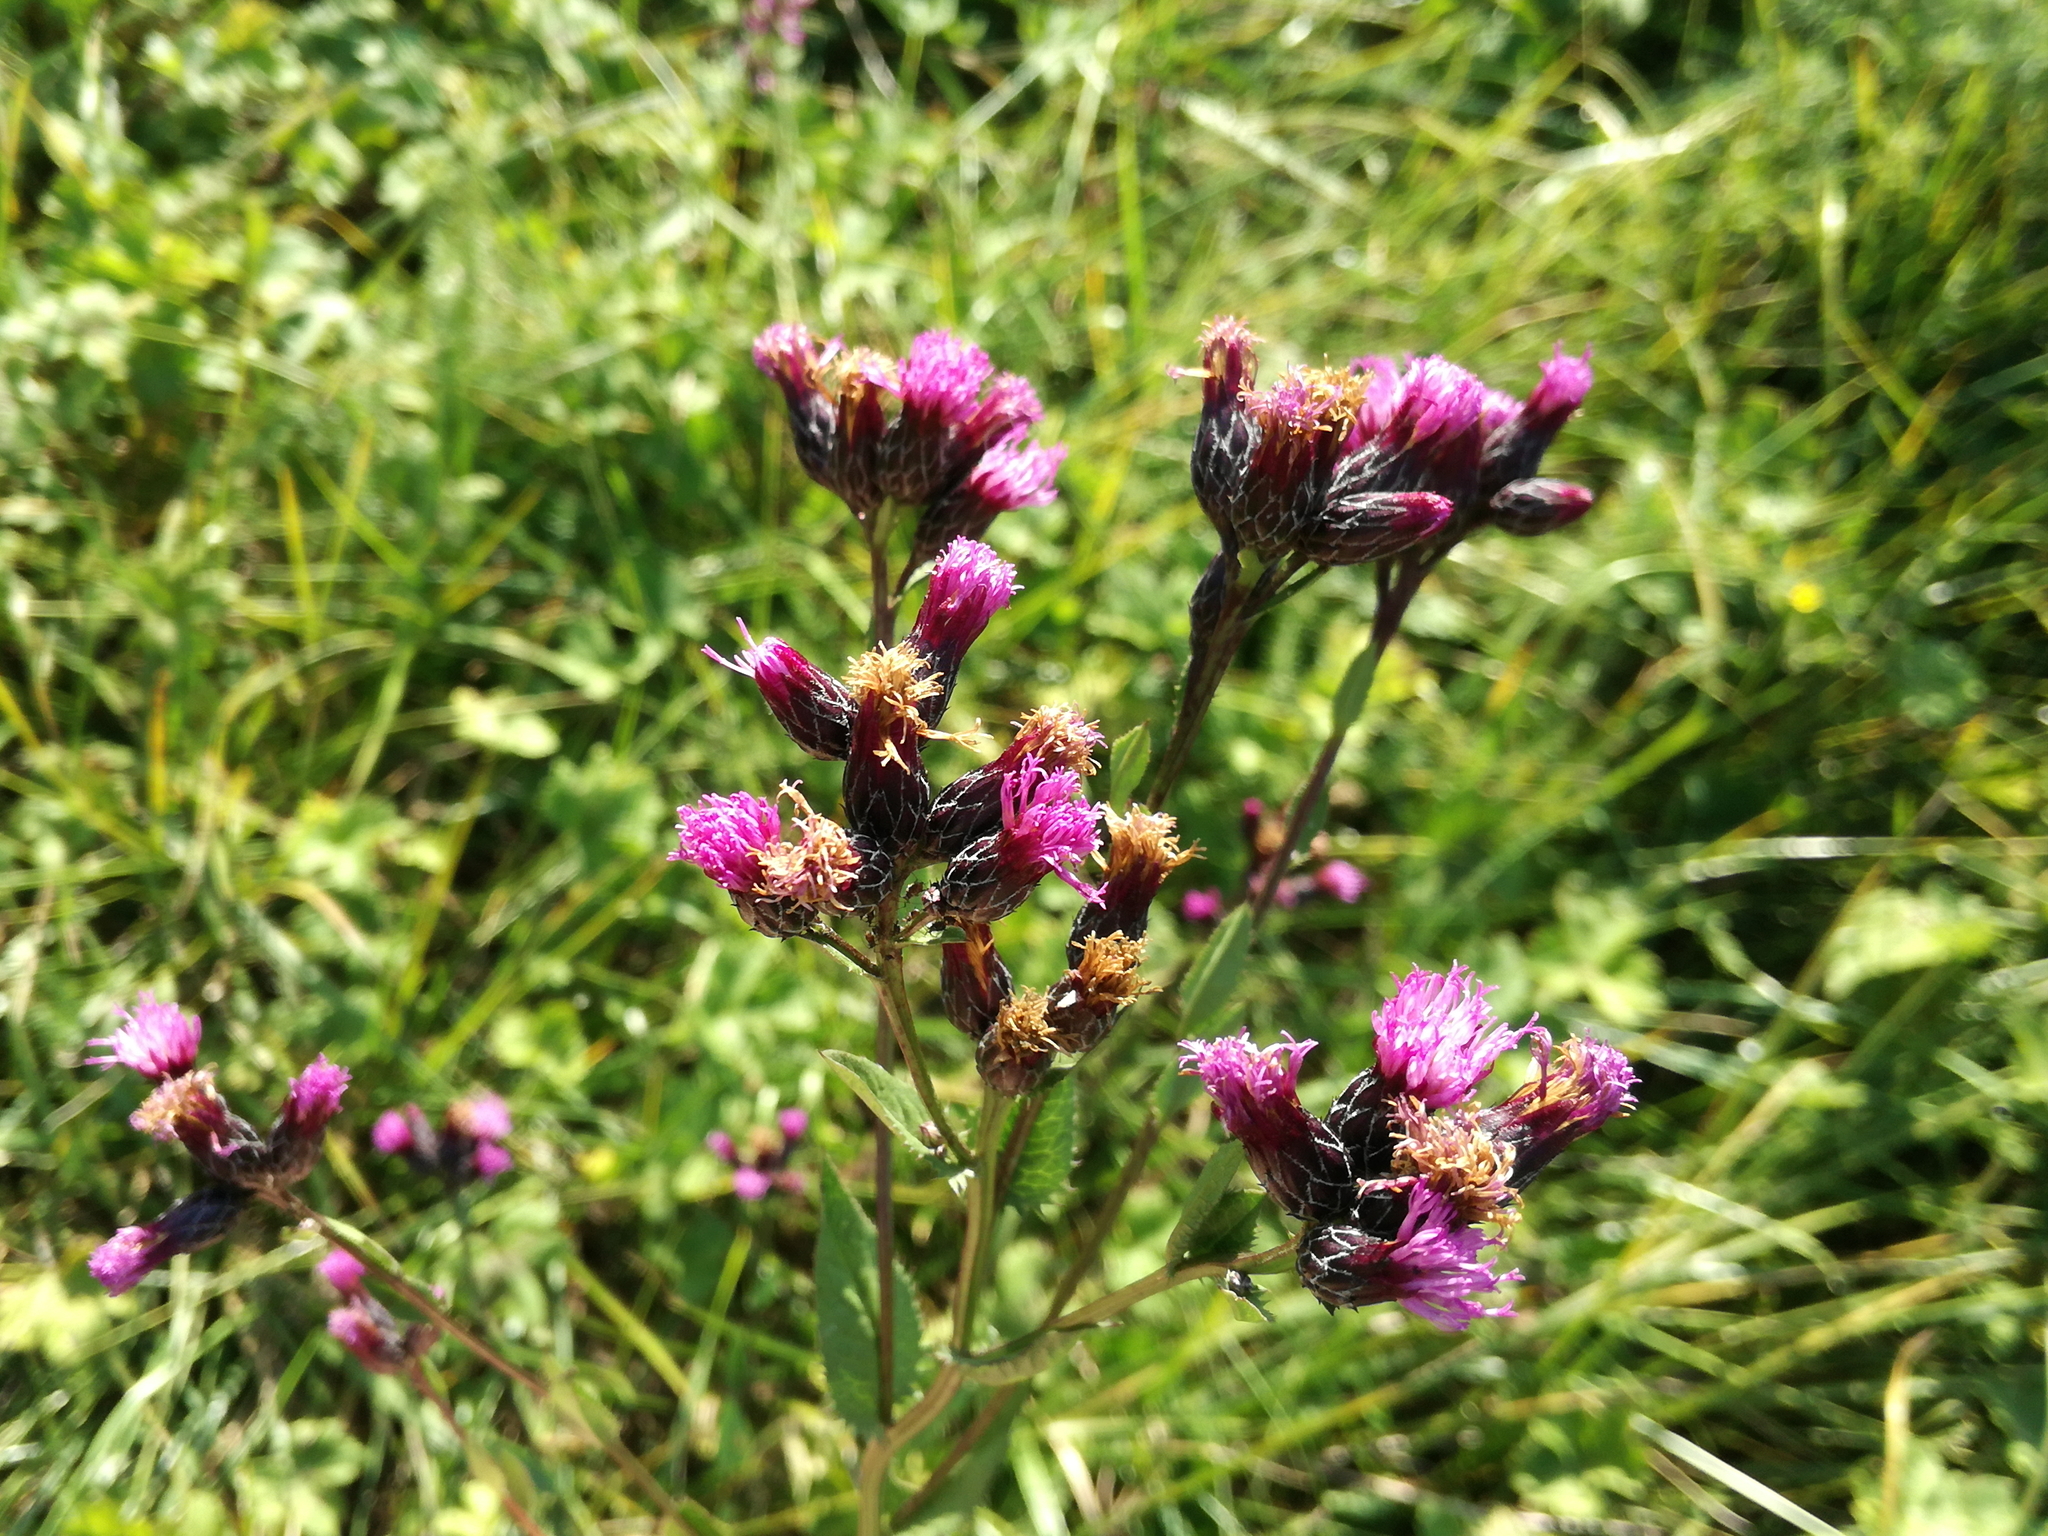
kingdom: Plantae
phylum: Tracheophyta
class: Magnoliopsida
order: Asterales
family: Asteraceae
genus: Serratula
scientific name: Serratula tinctoria
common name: Saw-wort
